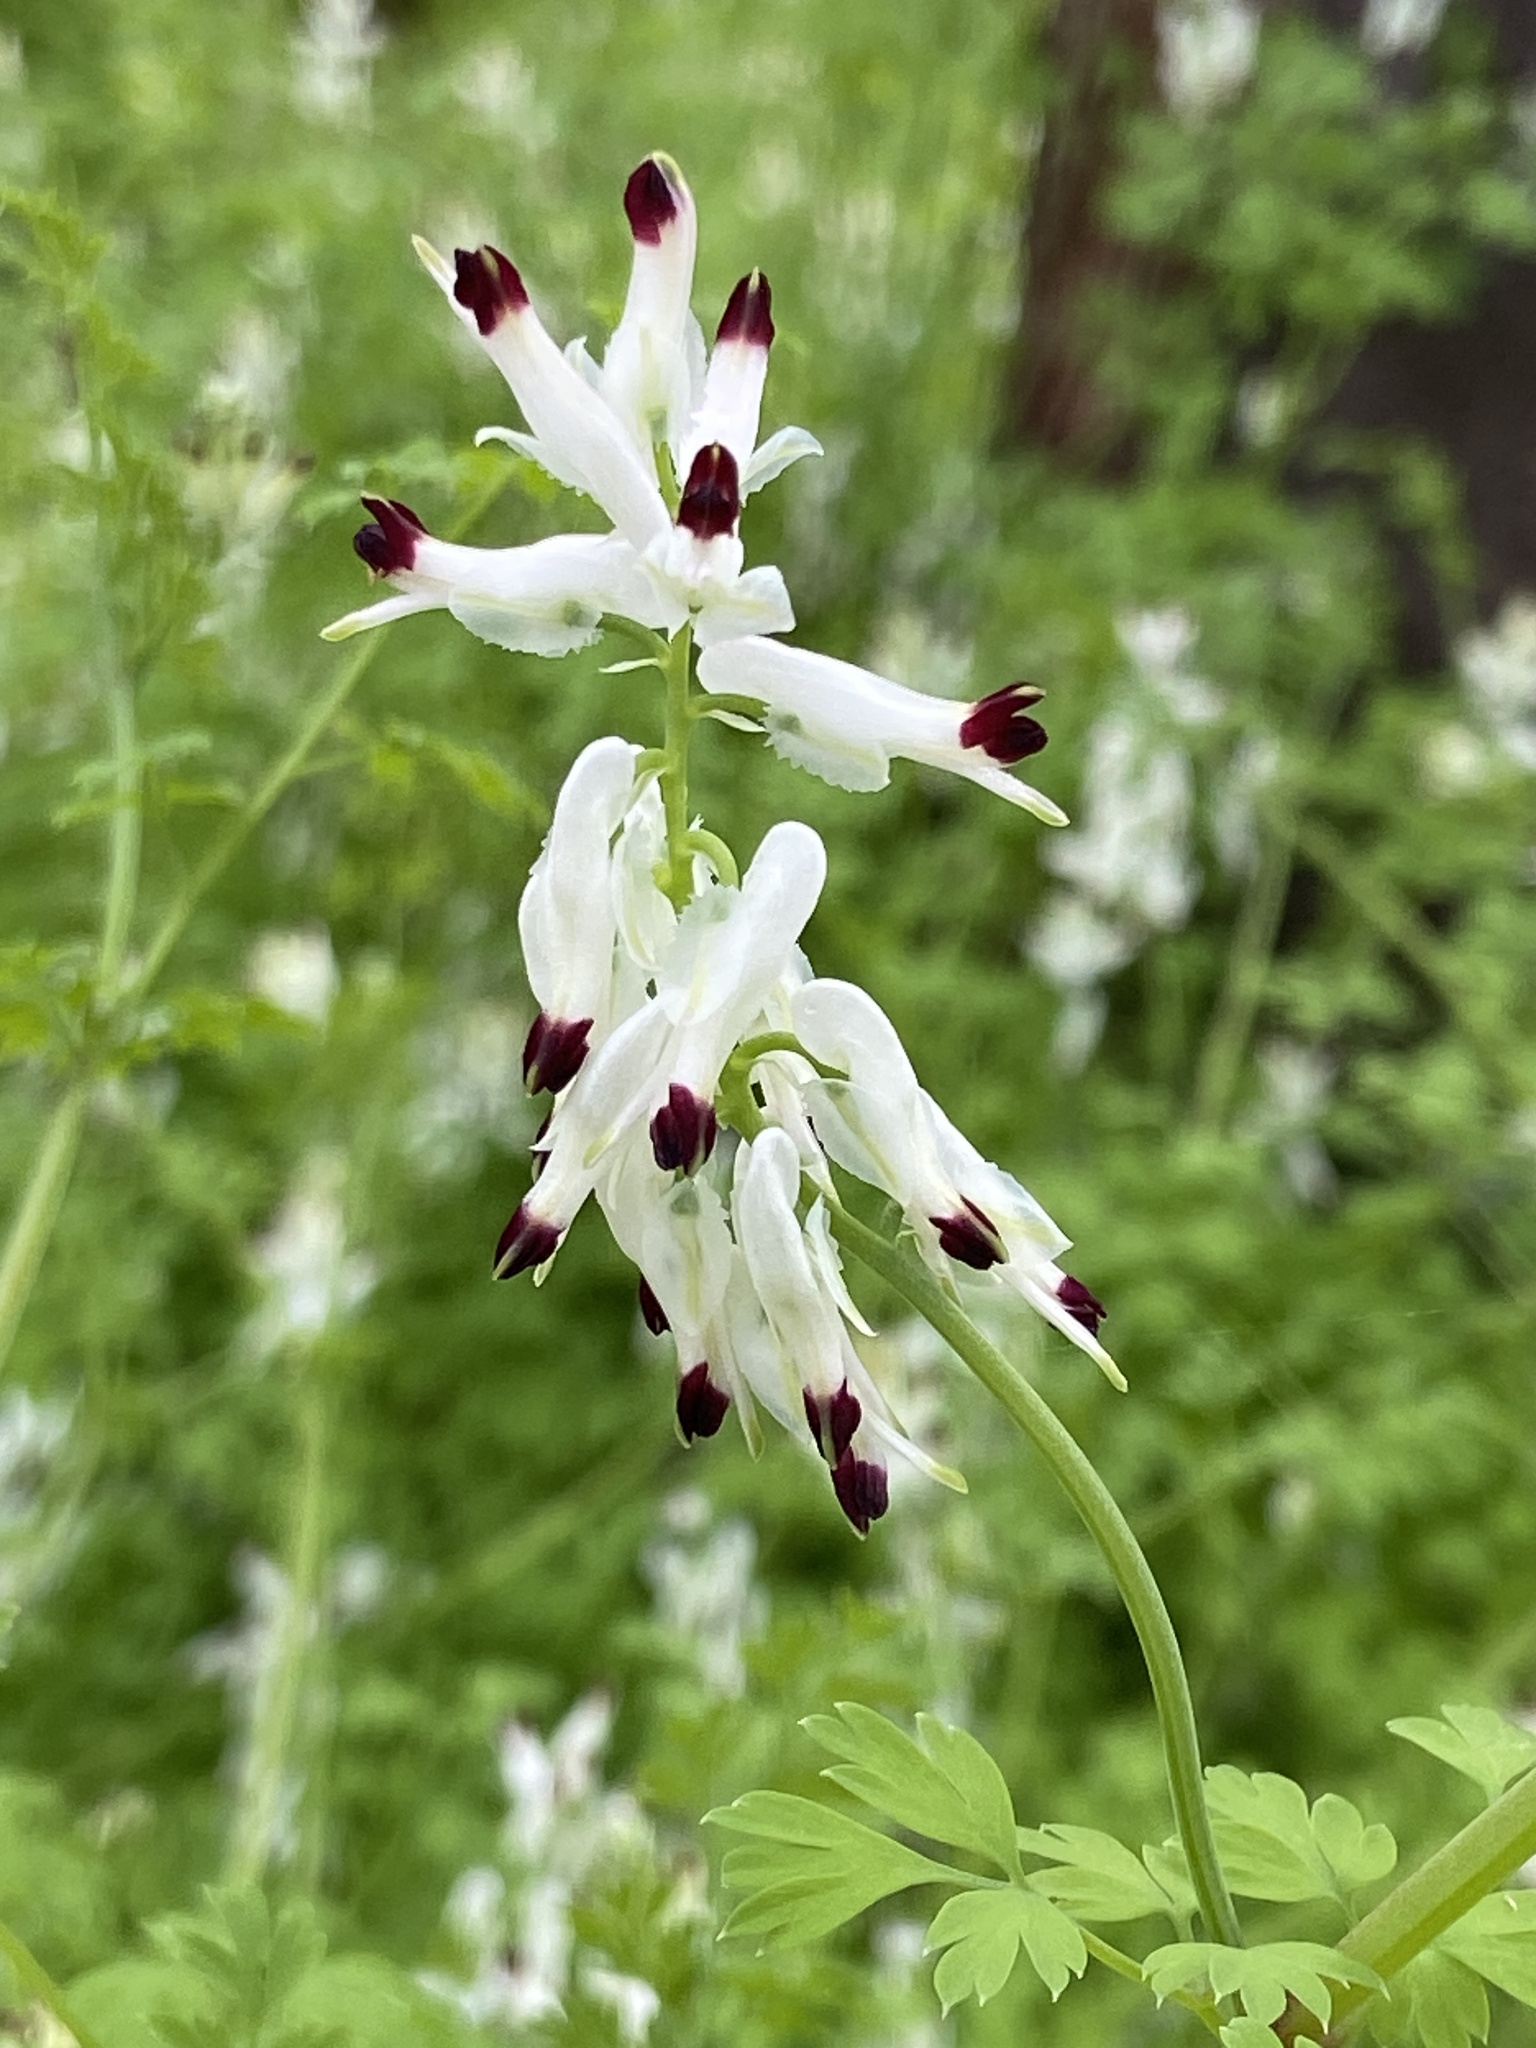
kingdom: Plantae
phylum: Tracheophyta
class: Magnoliopsida
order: Ranunculales
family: Papaveraceae
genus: Fumaria
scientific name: Fumaria capreolata
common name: White ramping-fumitory
